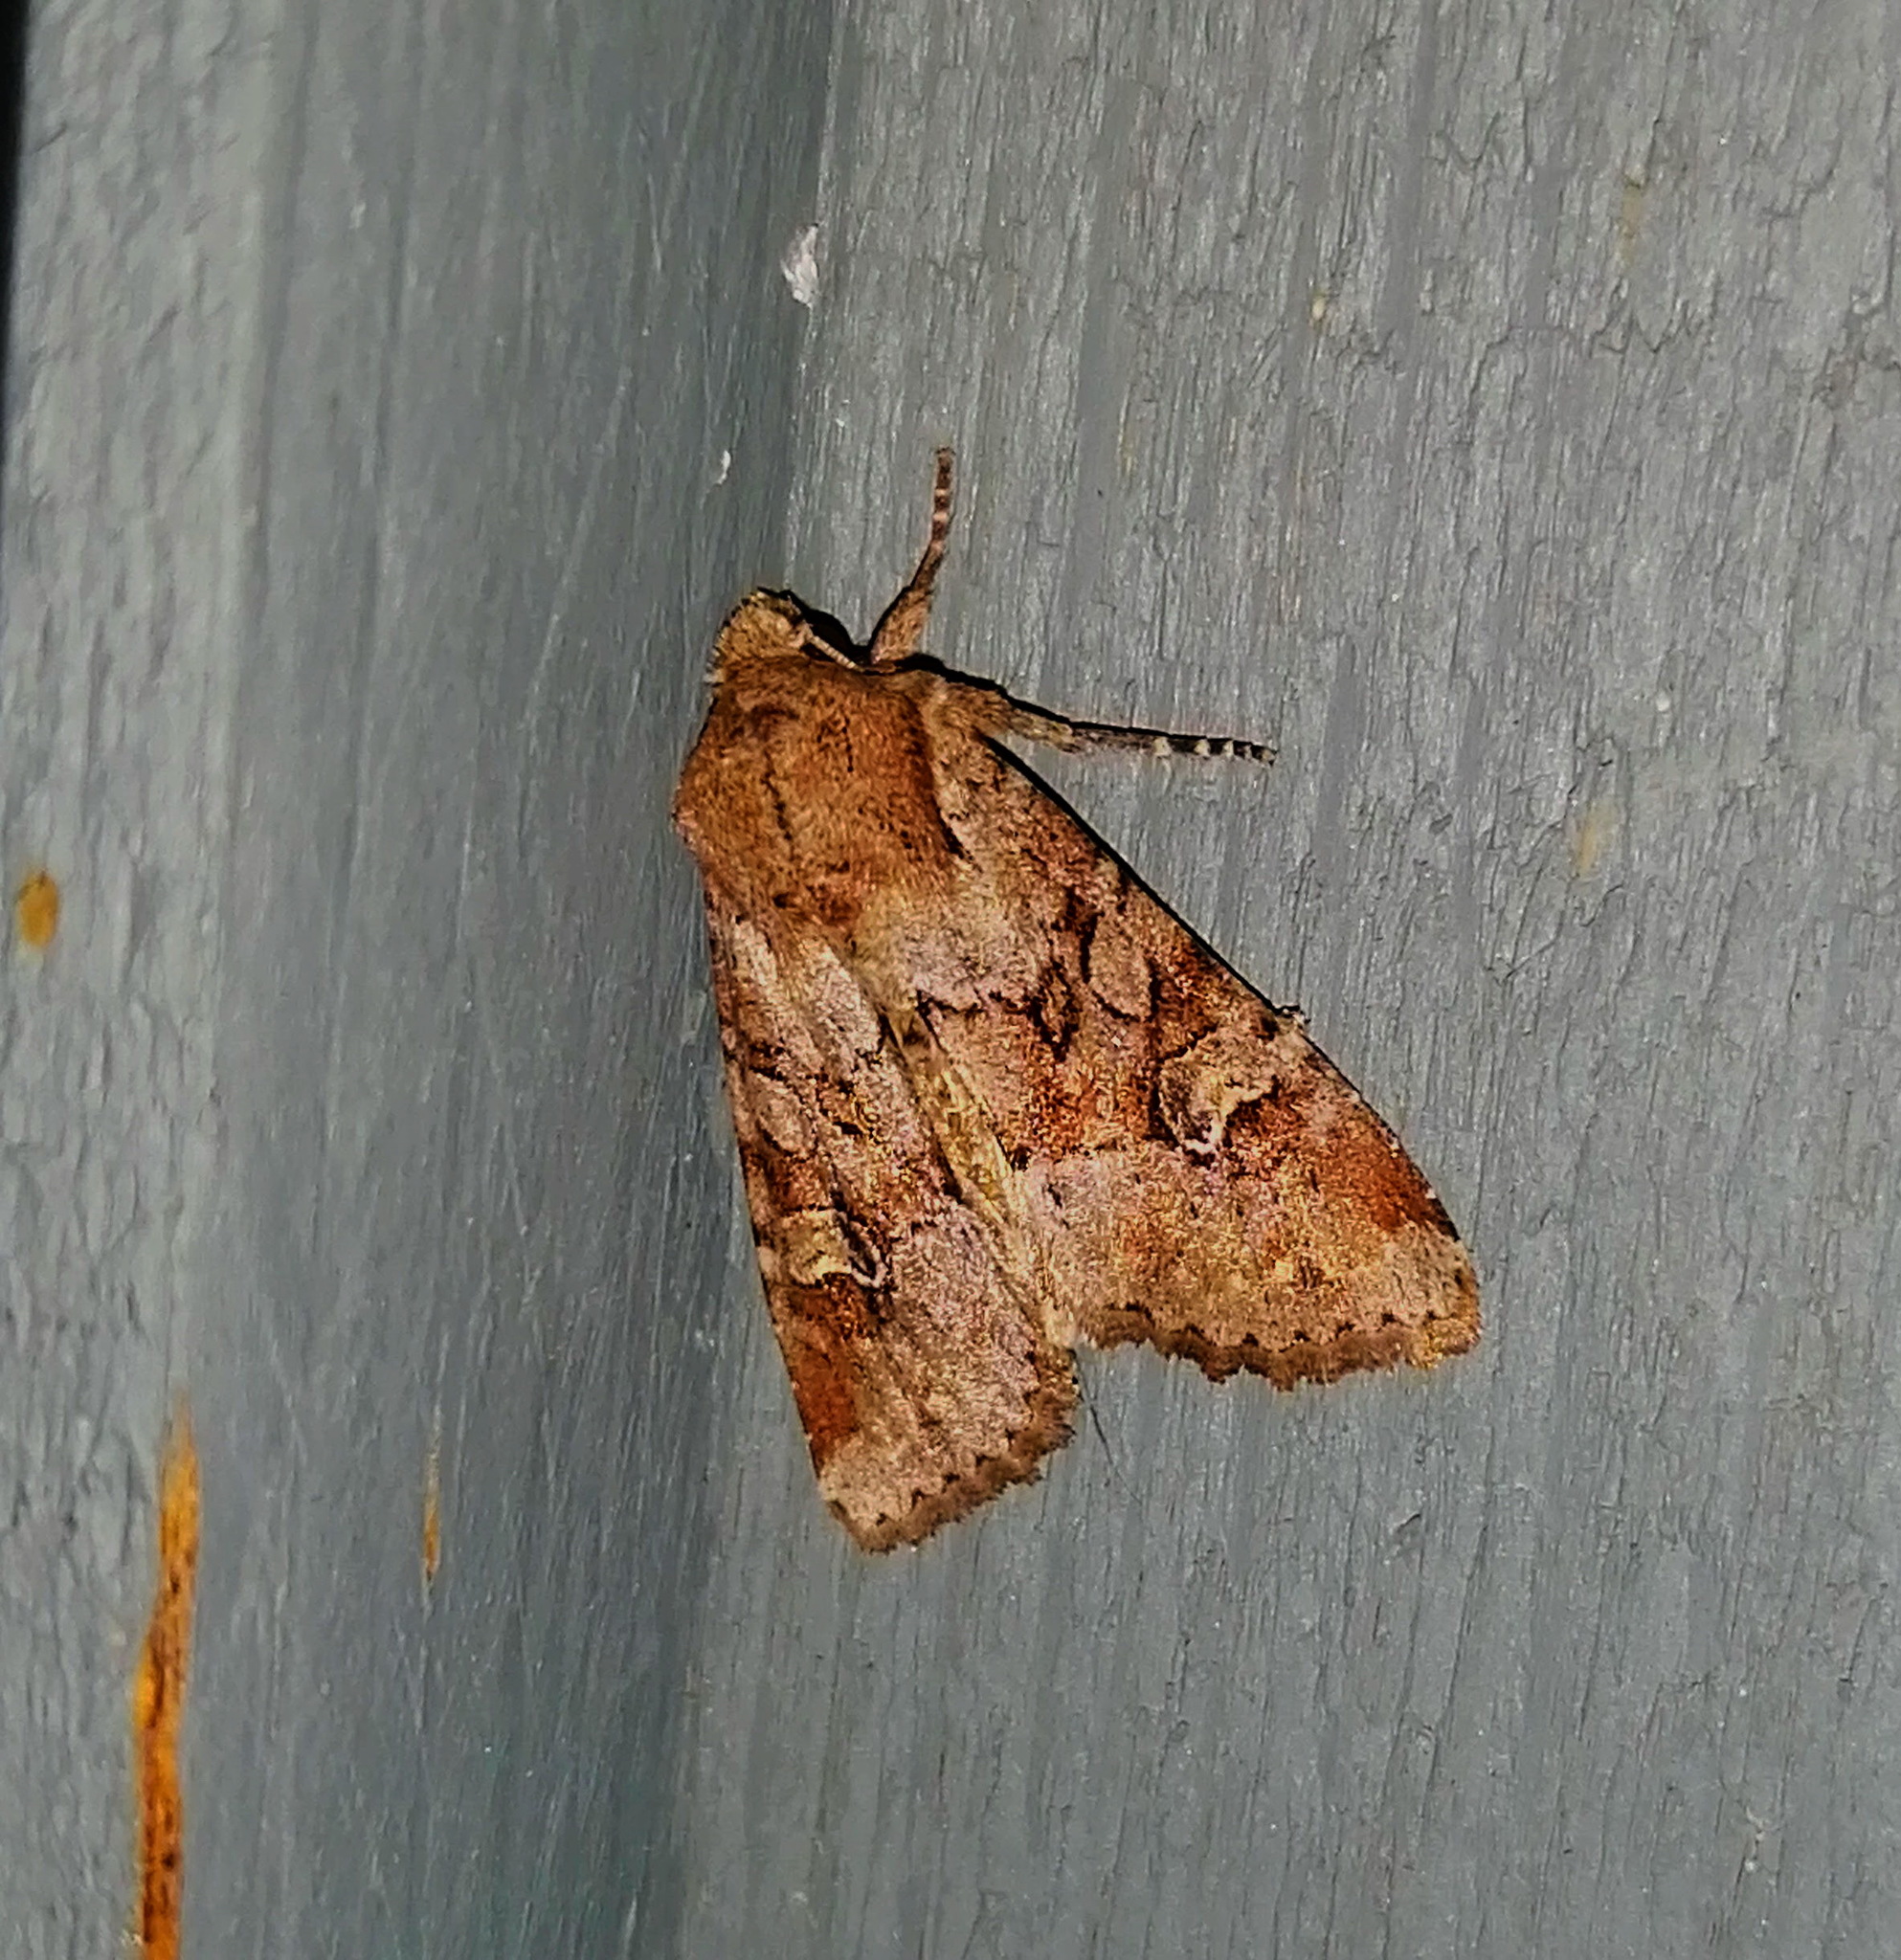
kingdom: Animalia
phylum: Arthropoda
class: Insecta
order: Lepidoptera
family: Noctuidae
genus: Apamea
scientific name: Apamea sordens
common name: Rustic shoulder-knot
